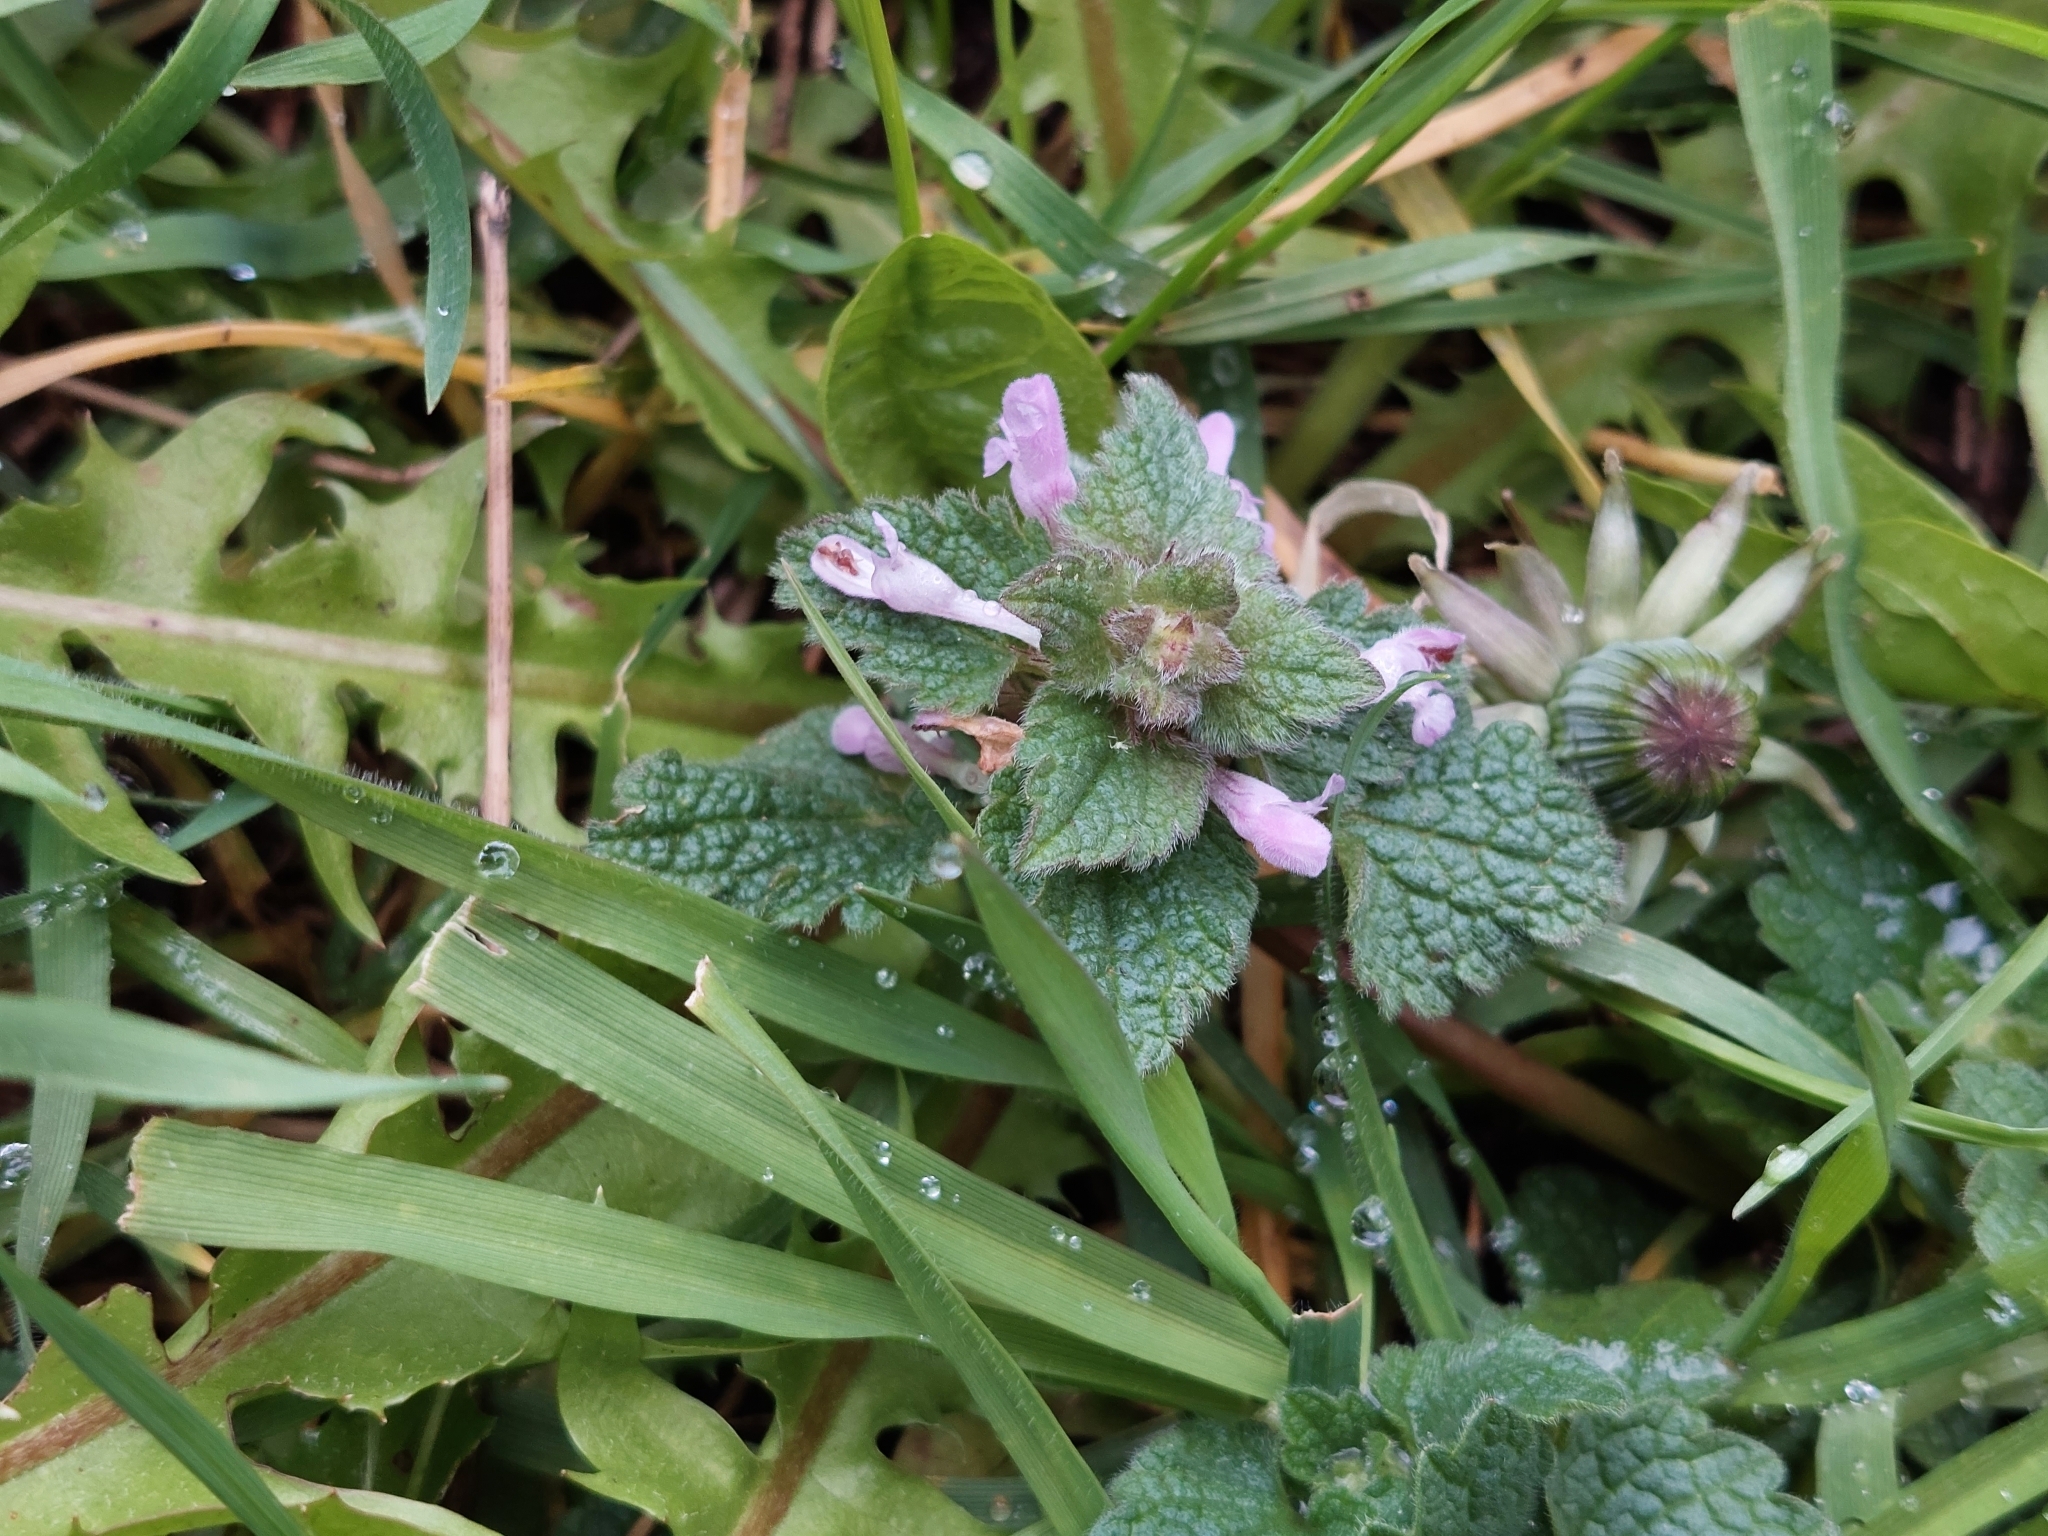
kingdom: Plantae
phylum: Tracheophyta
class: Magnoliopsida
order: Lamiales
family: Lamiaceae
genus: Lamium
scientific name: Lamium purpureum
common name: Red dead-nettle
